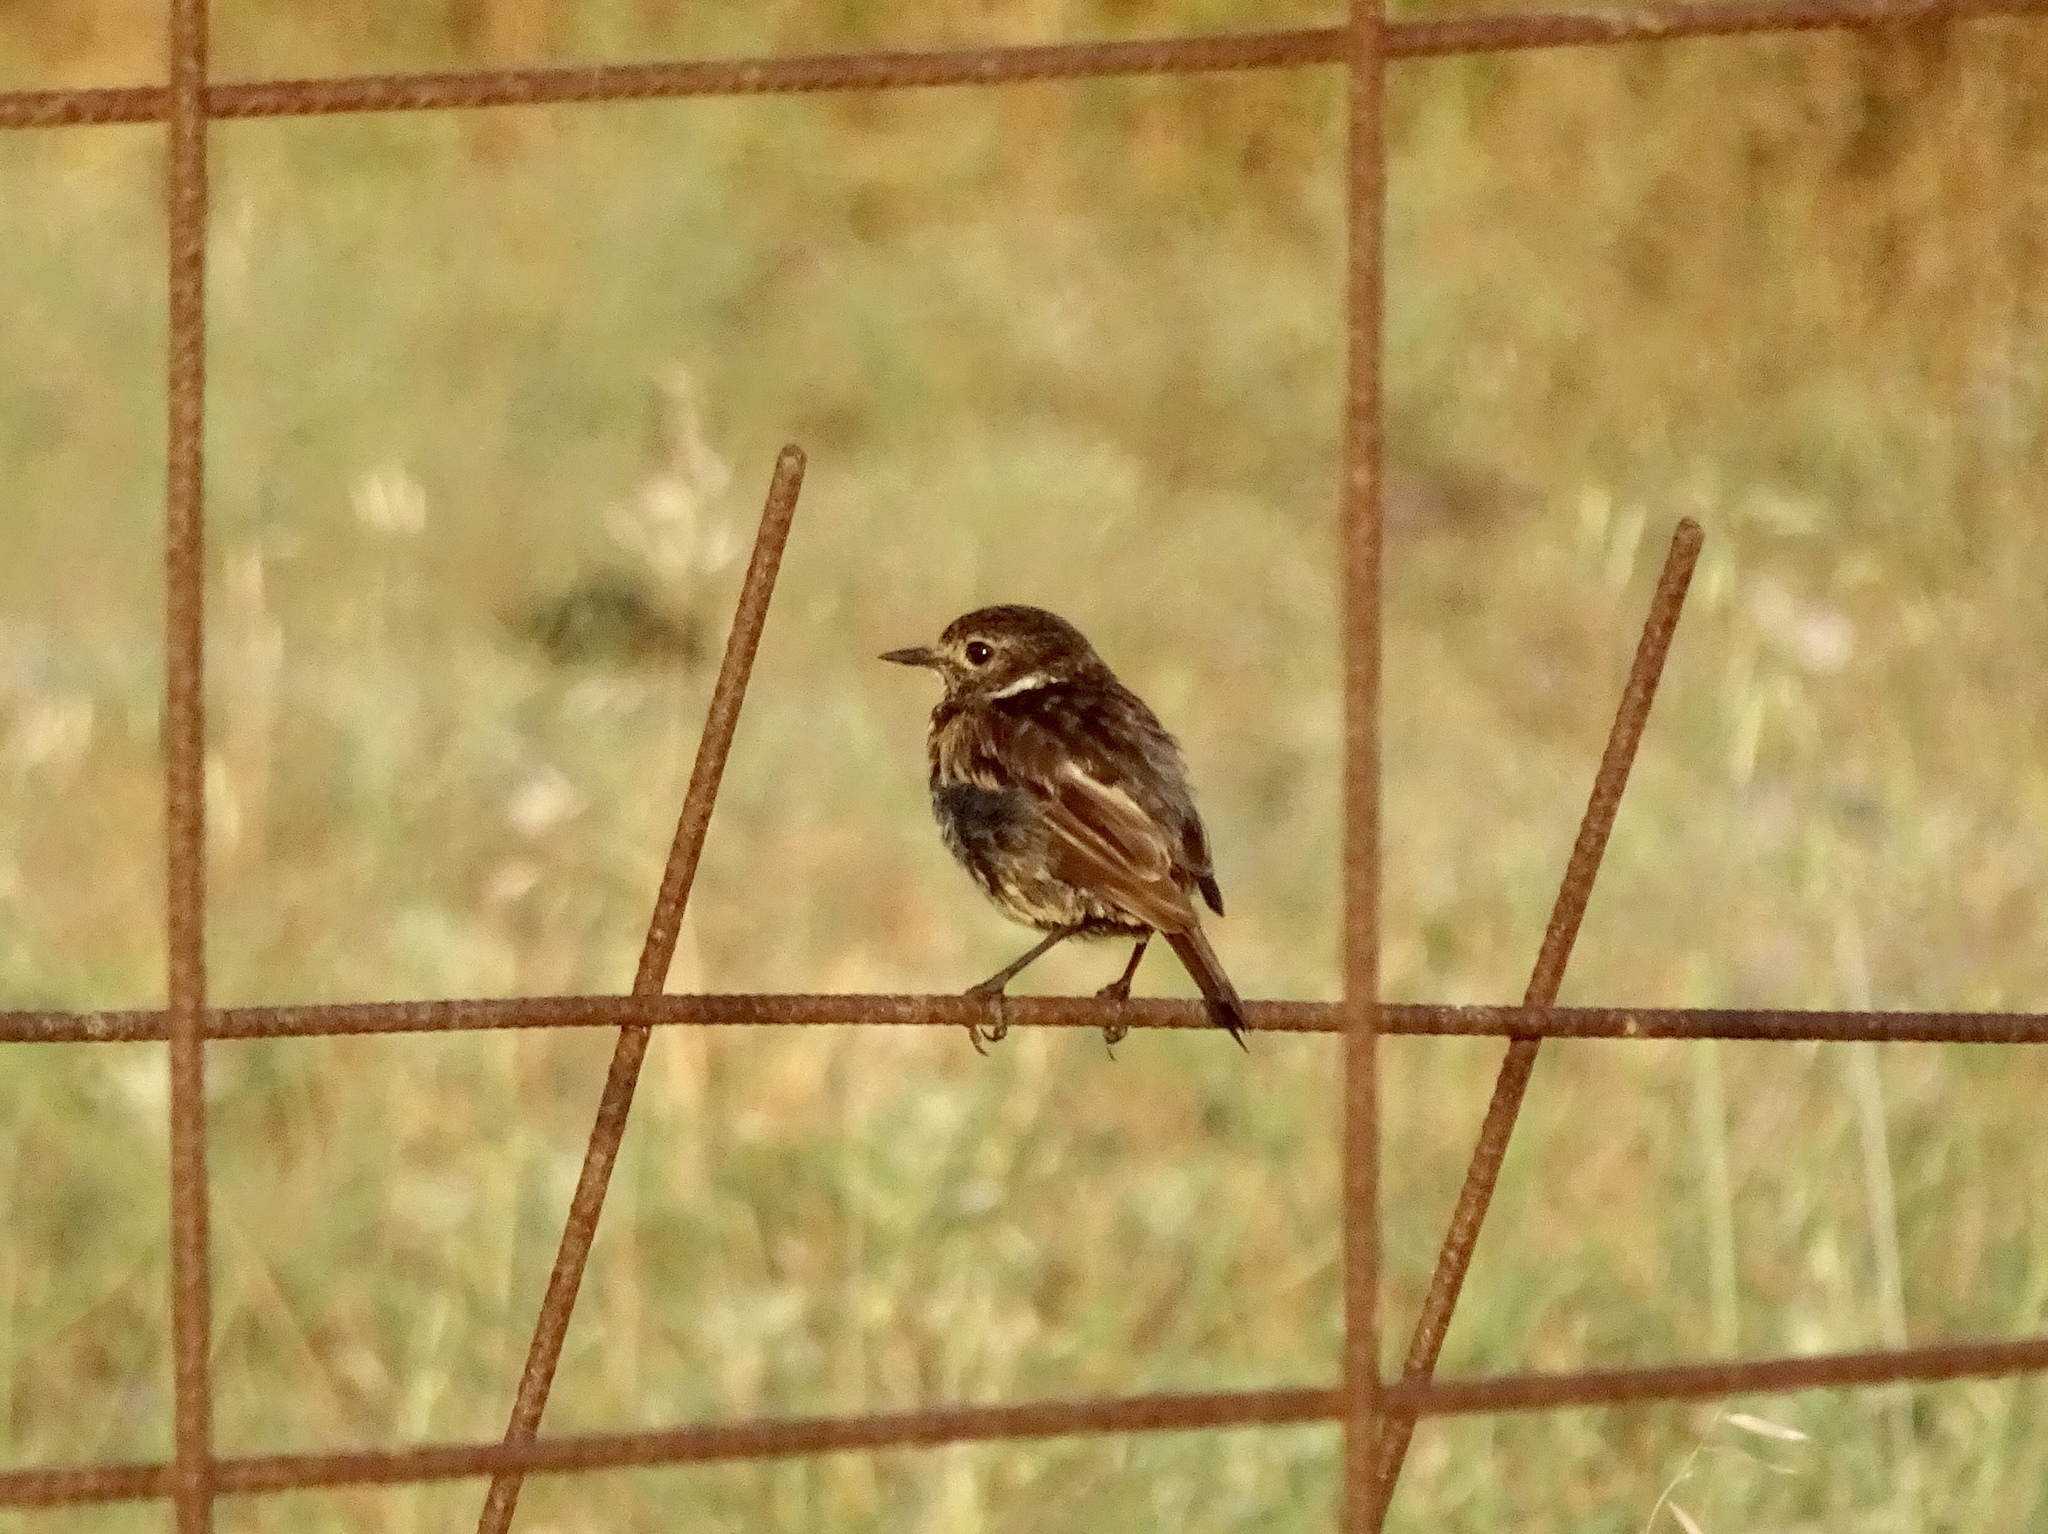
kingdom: Animalia
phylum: Chordata
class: Aves
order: Passeriformes
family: Muscicapidae
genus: Saxicola
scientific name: Saxicola rubicola
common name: European stonechat
